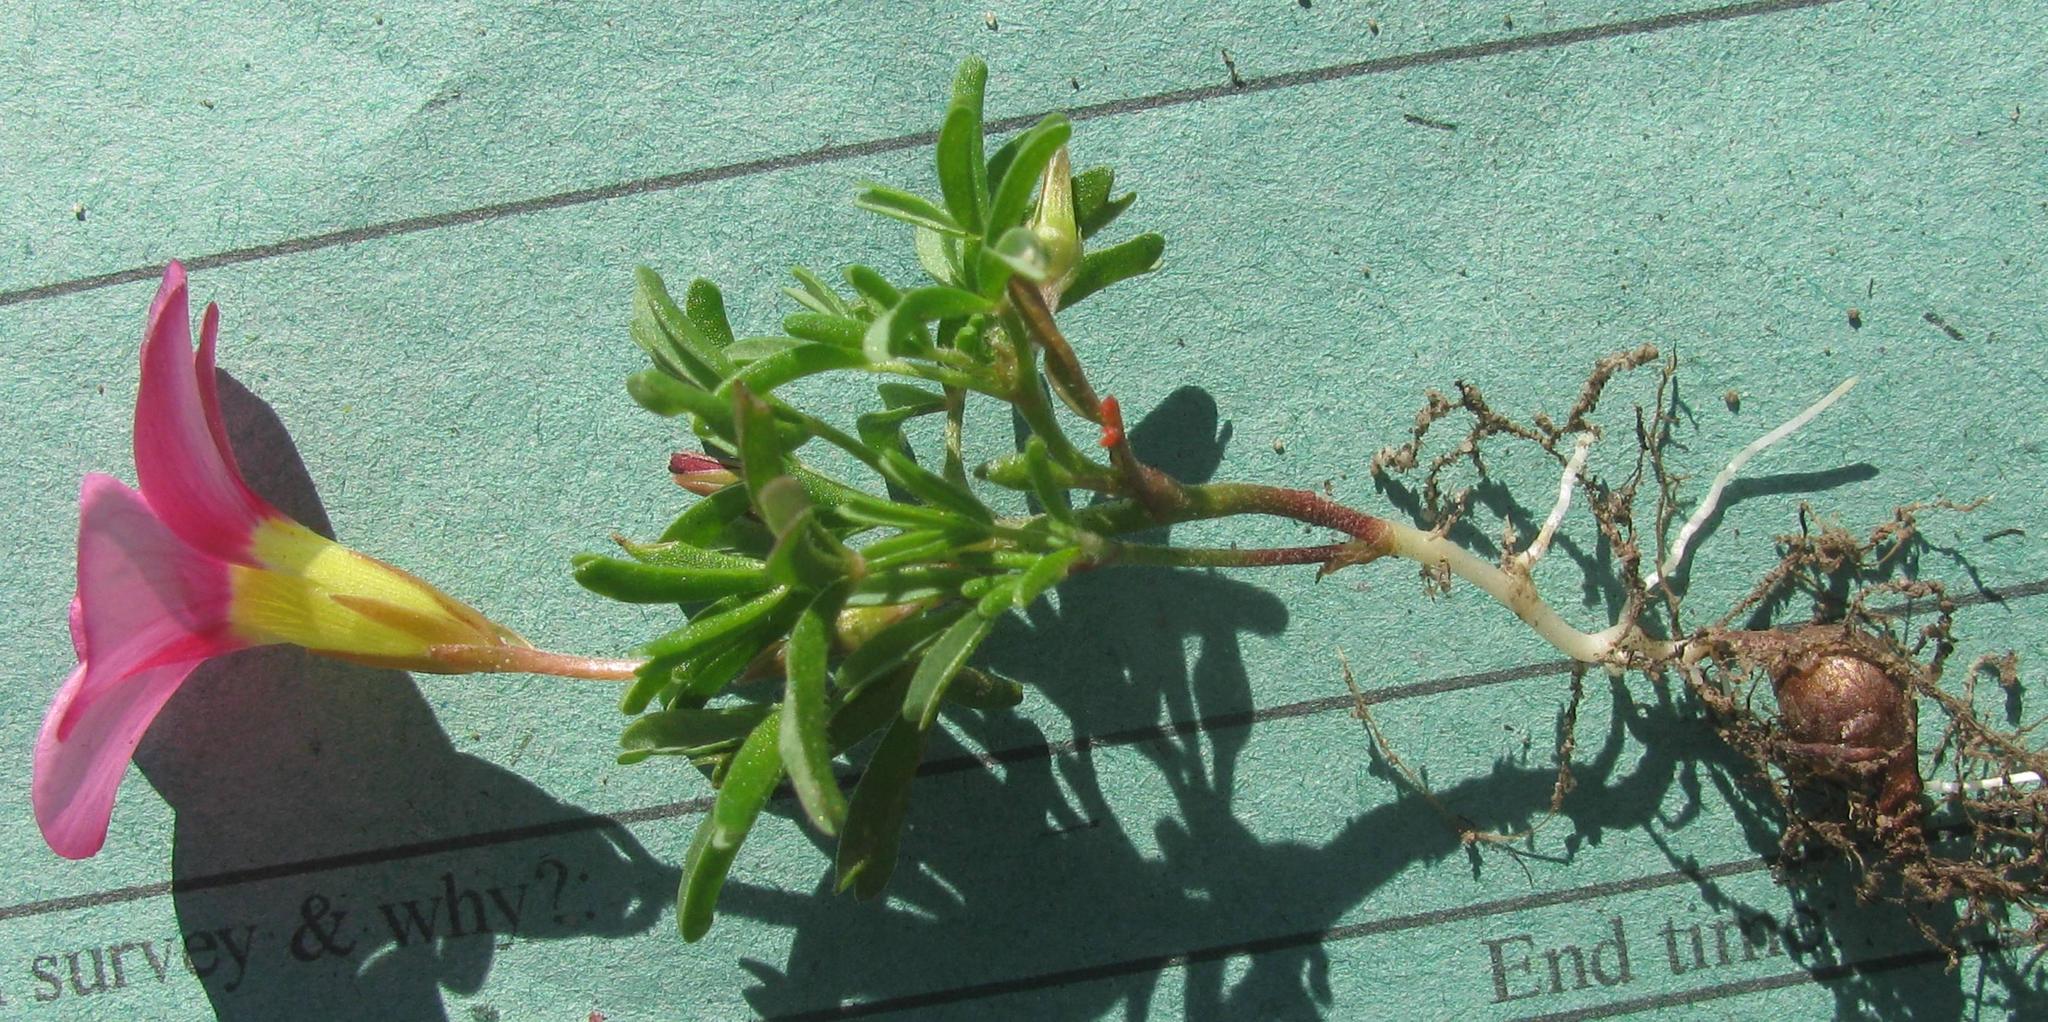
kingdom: Plantae
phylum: Tracheophyta
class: Magnoliopsida
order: Oxalidales
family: Oxalidaceae
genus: Oxalis
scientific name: Oxalis glabra
